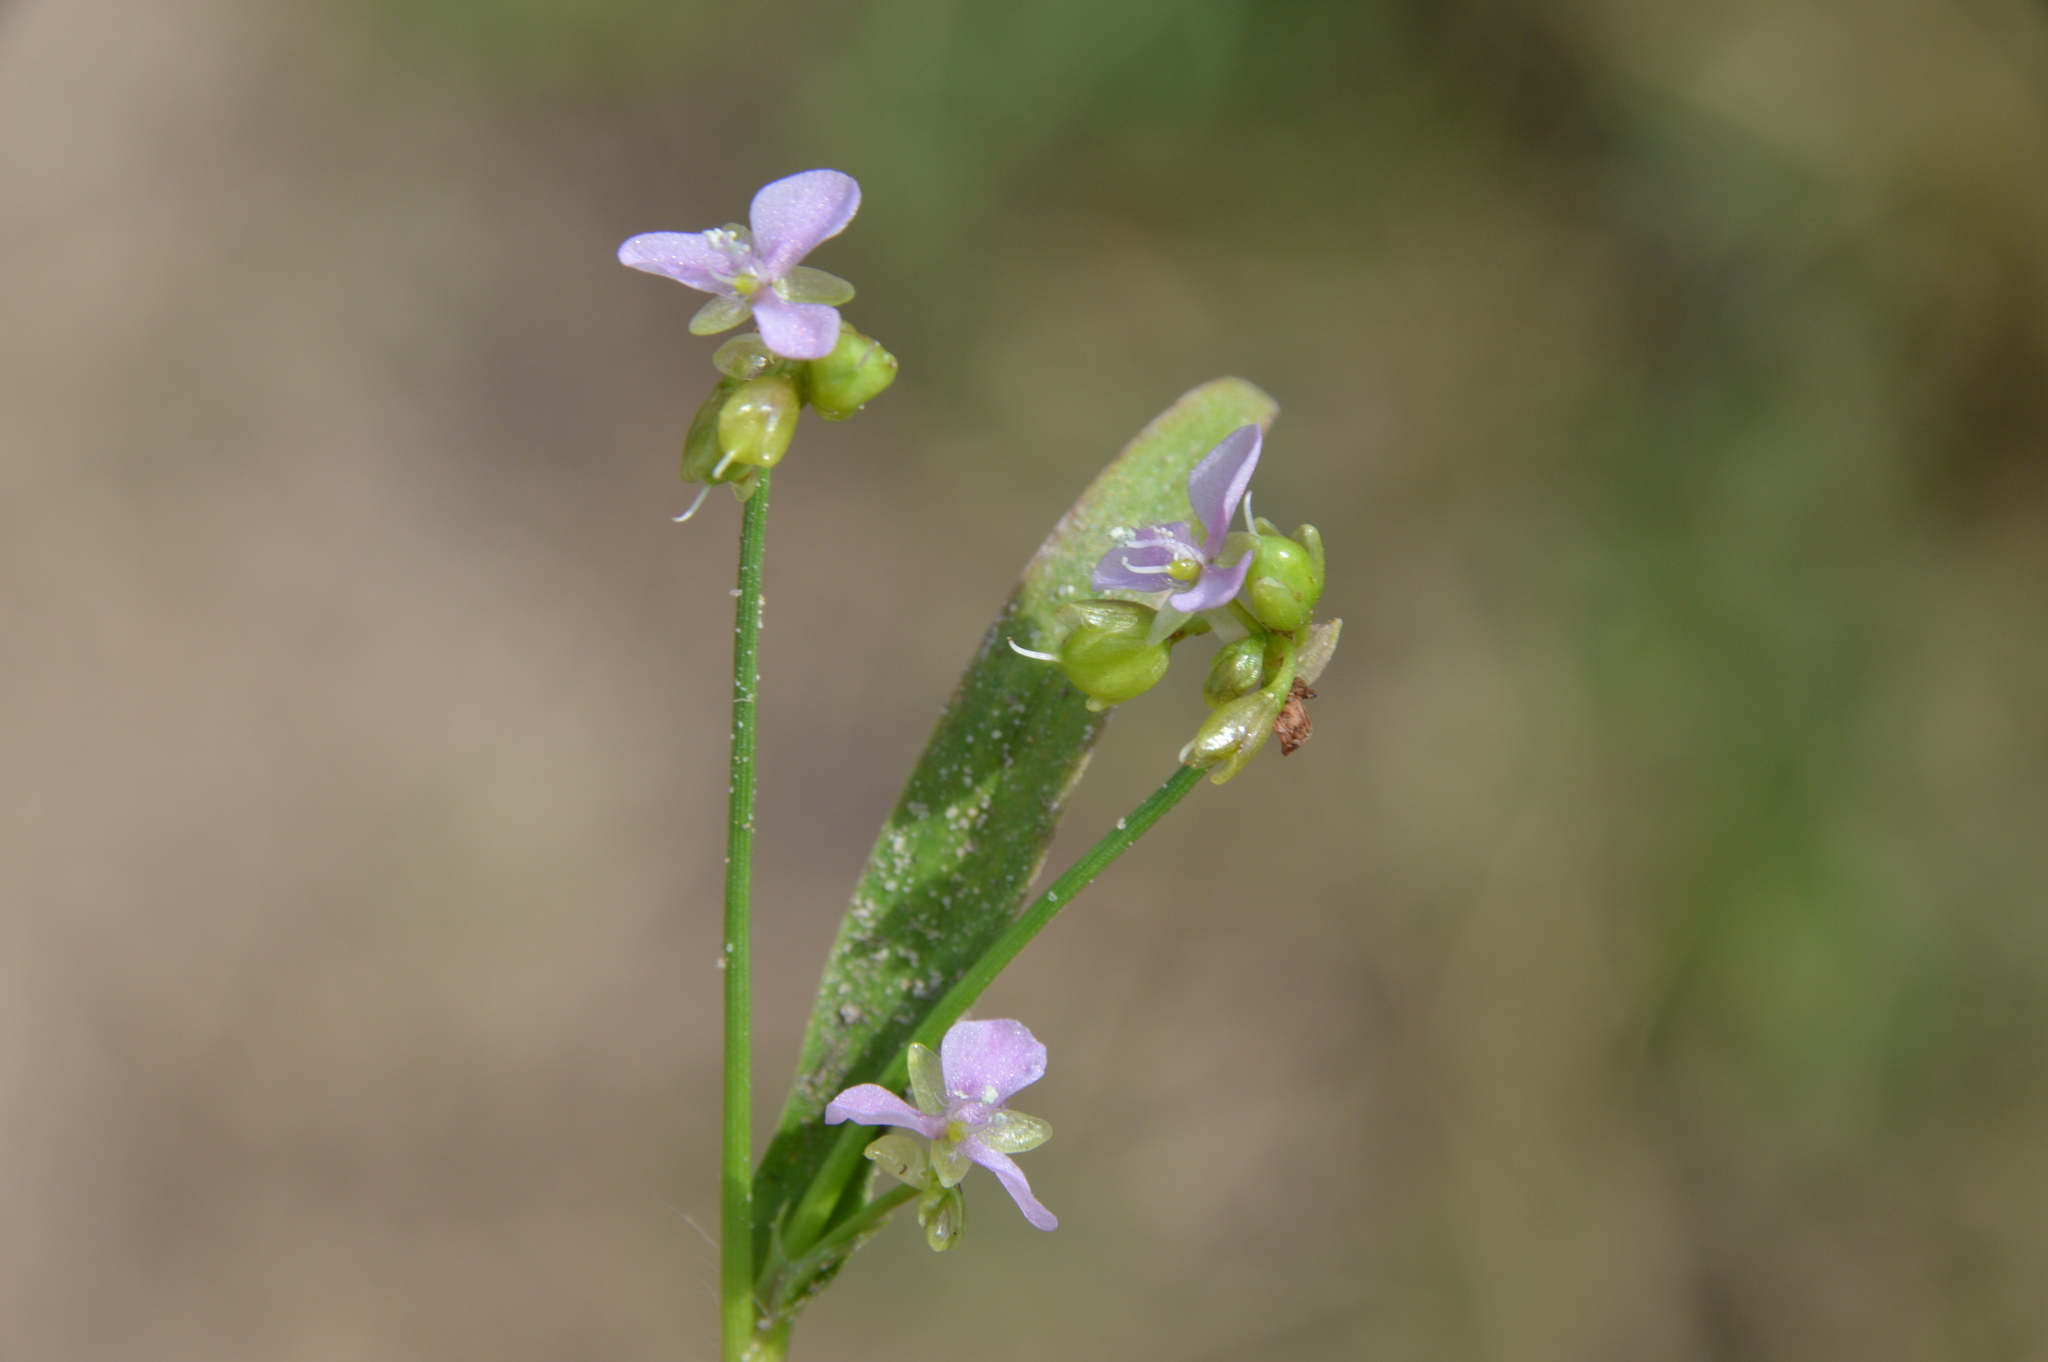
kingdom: Plantae
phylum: Tracheophyta
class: Liliopsida
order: Commelinales
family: Commelinaceae
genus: Murdannia
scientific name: Murdannia nudiflora
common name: Nakedstem dewflower
